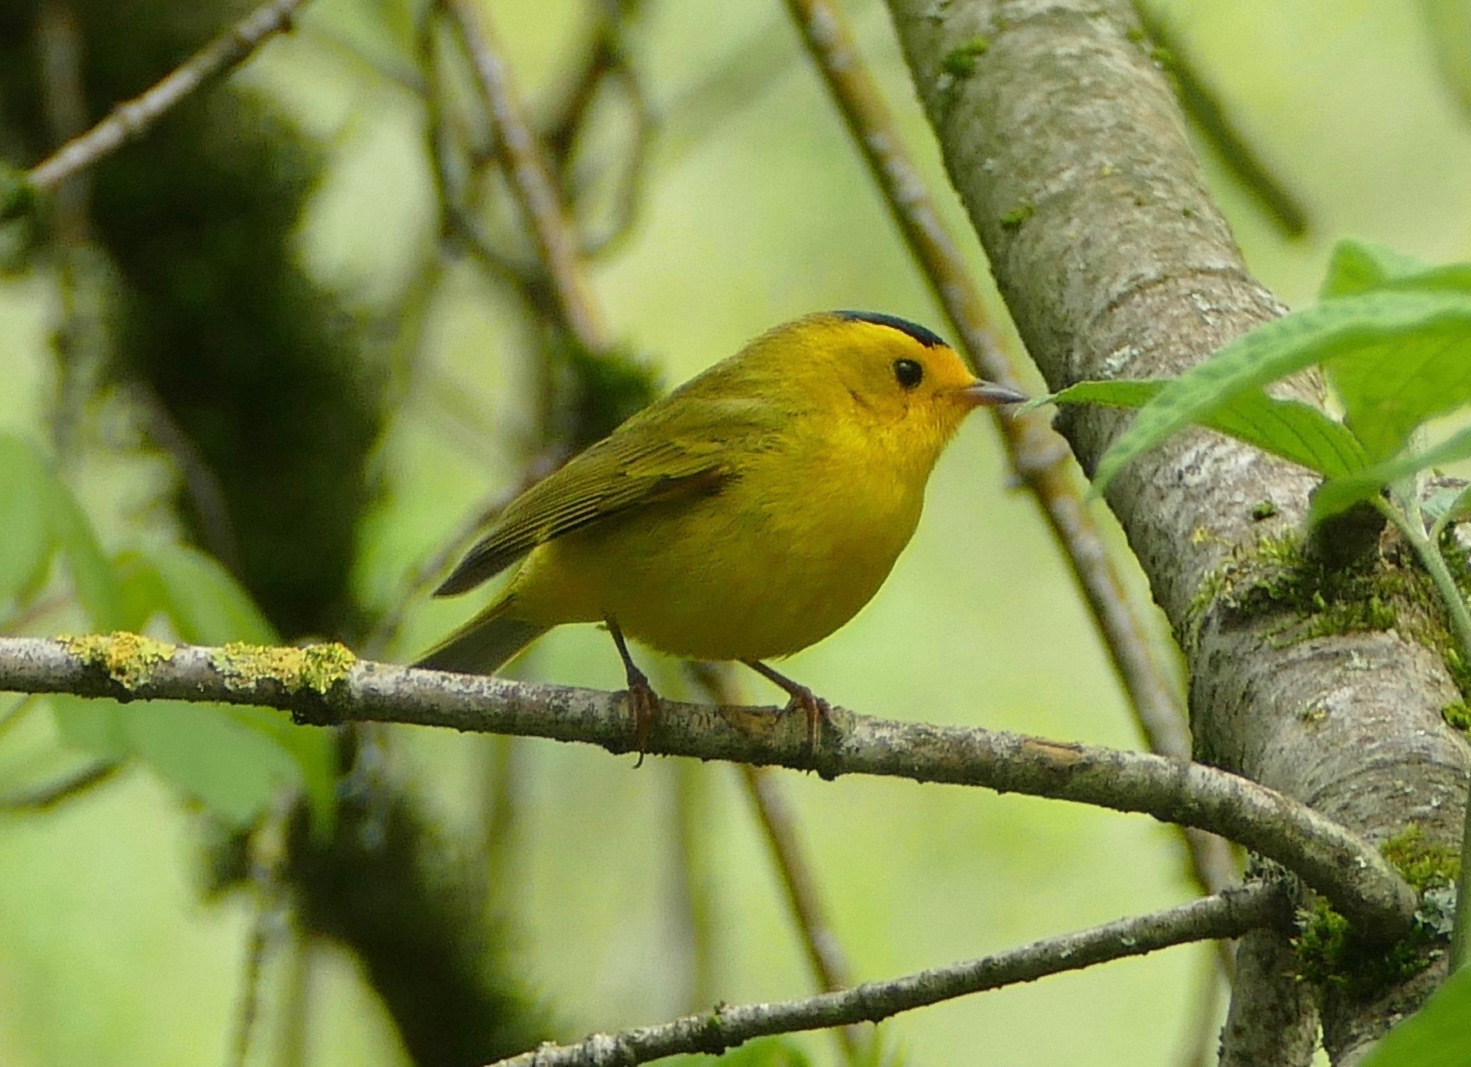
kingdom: Animalia
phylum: Chordata
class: Aves
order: Passeriformes
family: Parulidae
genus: Cardellina
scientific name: Cardellina pusilla
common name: Wilson's warbler
